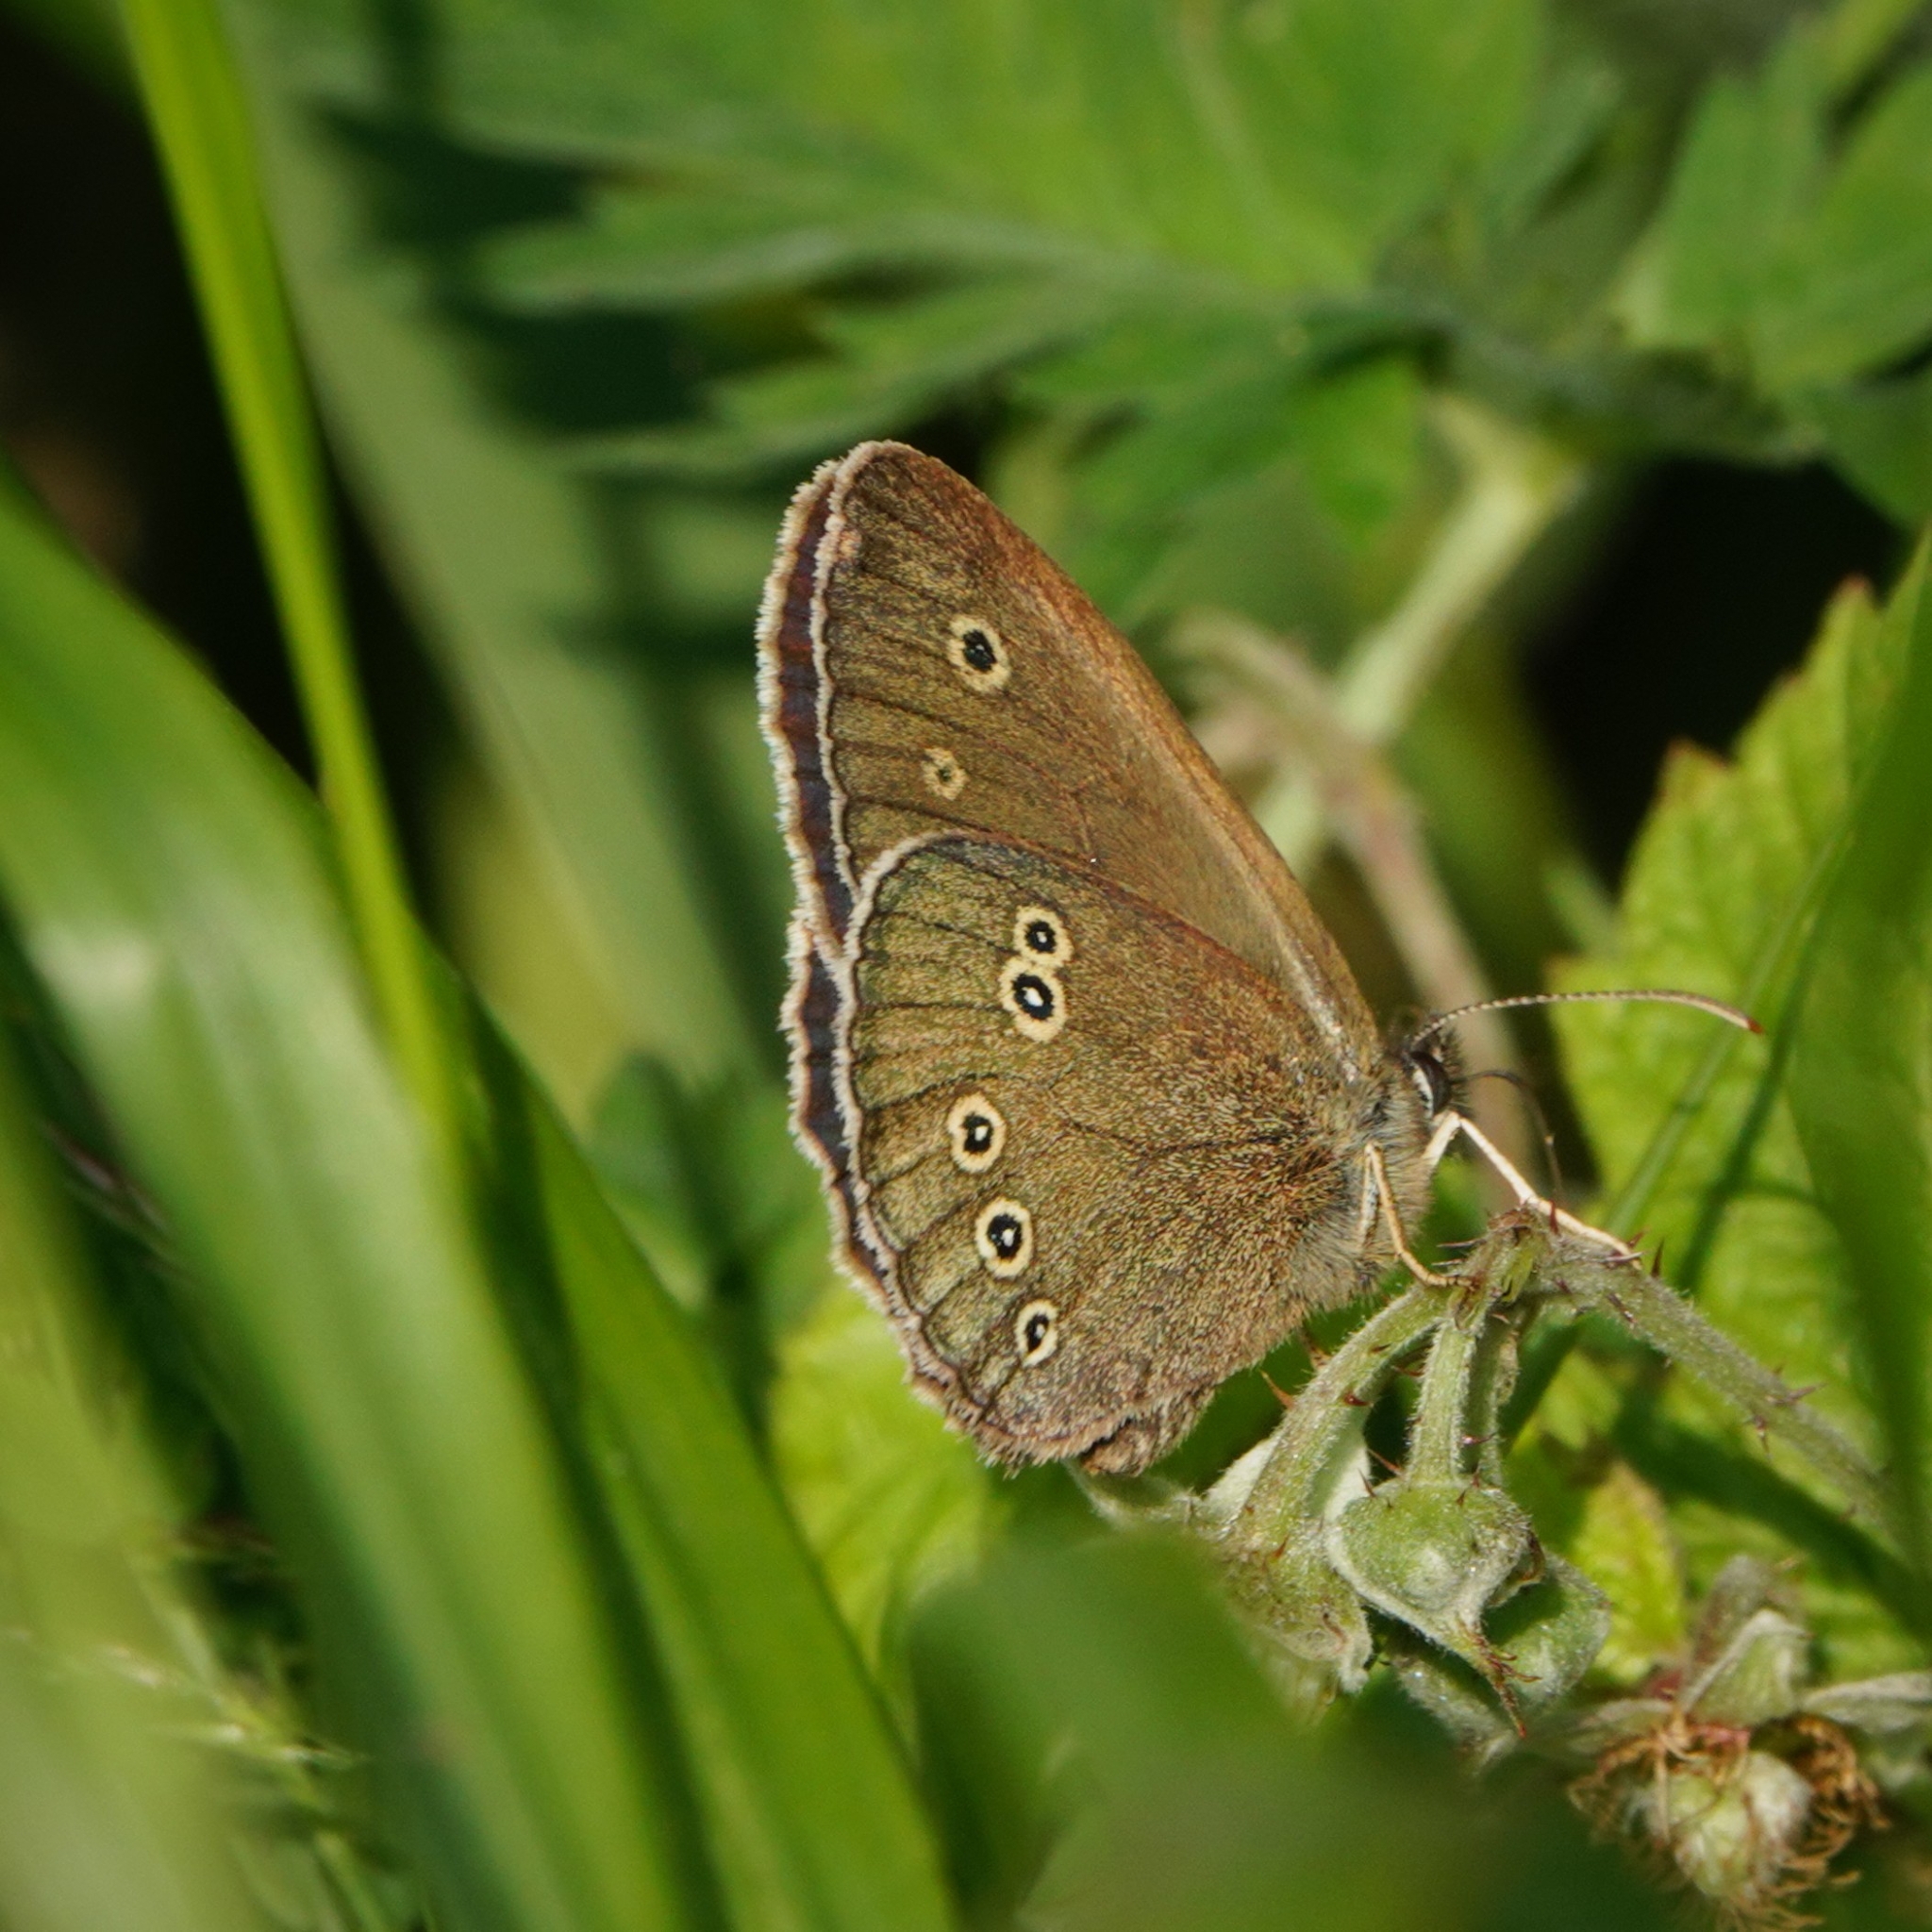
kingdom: Animalia
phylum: Arthropoda
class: Insecta
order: Lepidoptera
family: Nymphalidae
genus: Aphantopus
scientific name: Aphantopus hyperantus
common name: Ringlet
